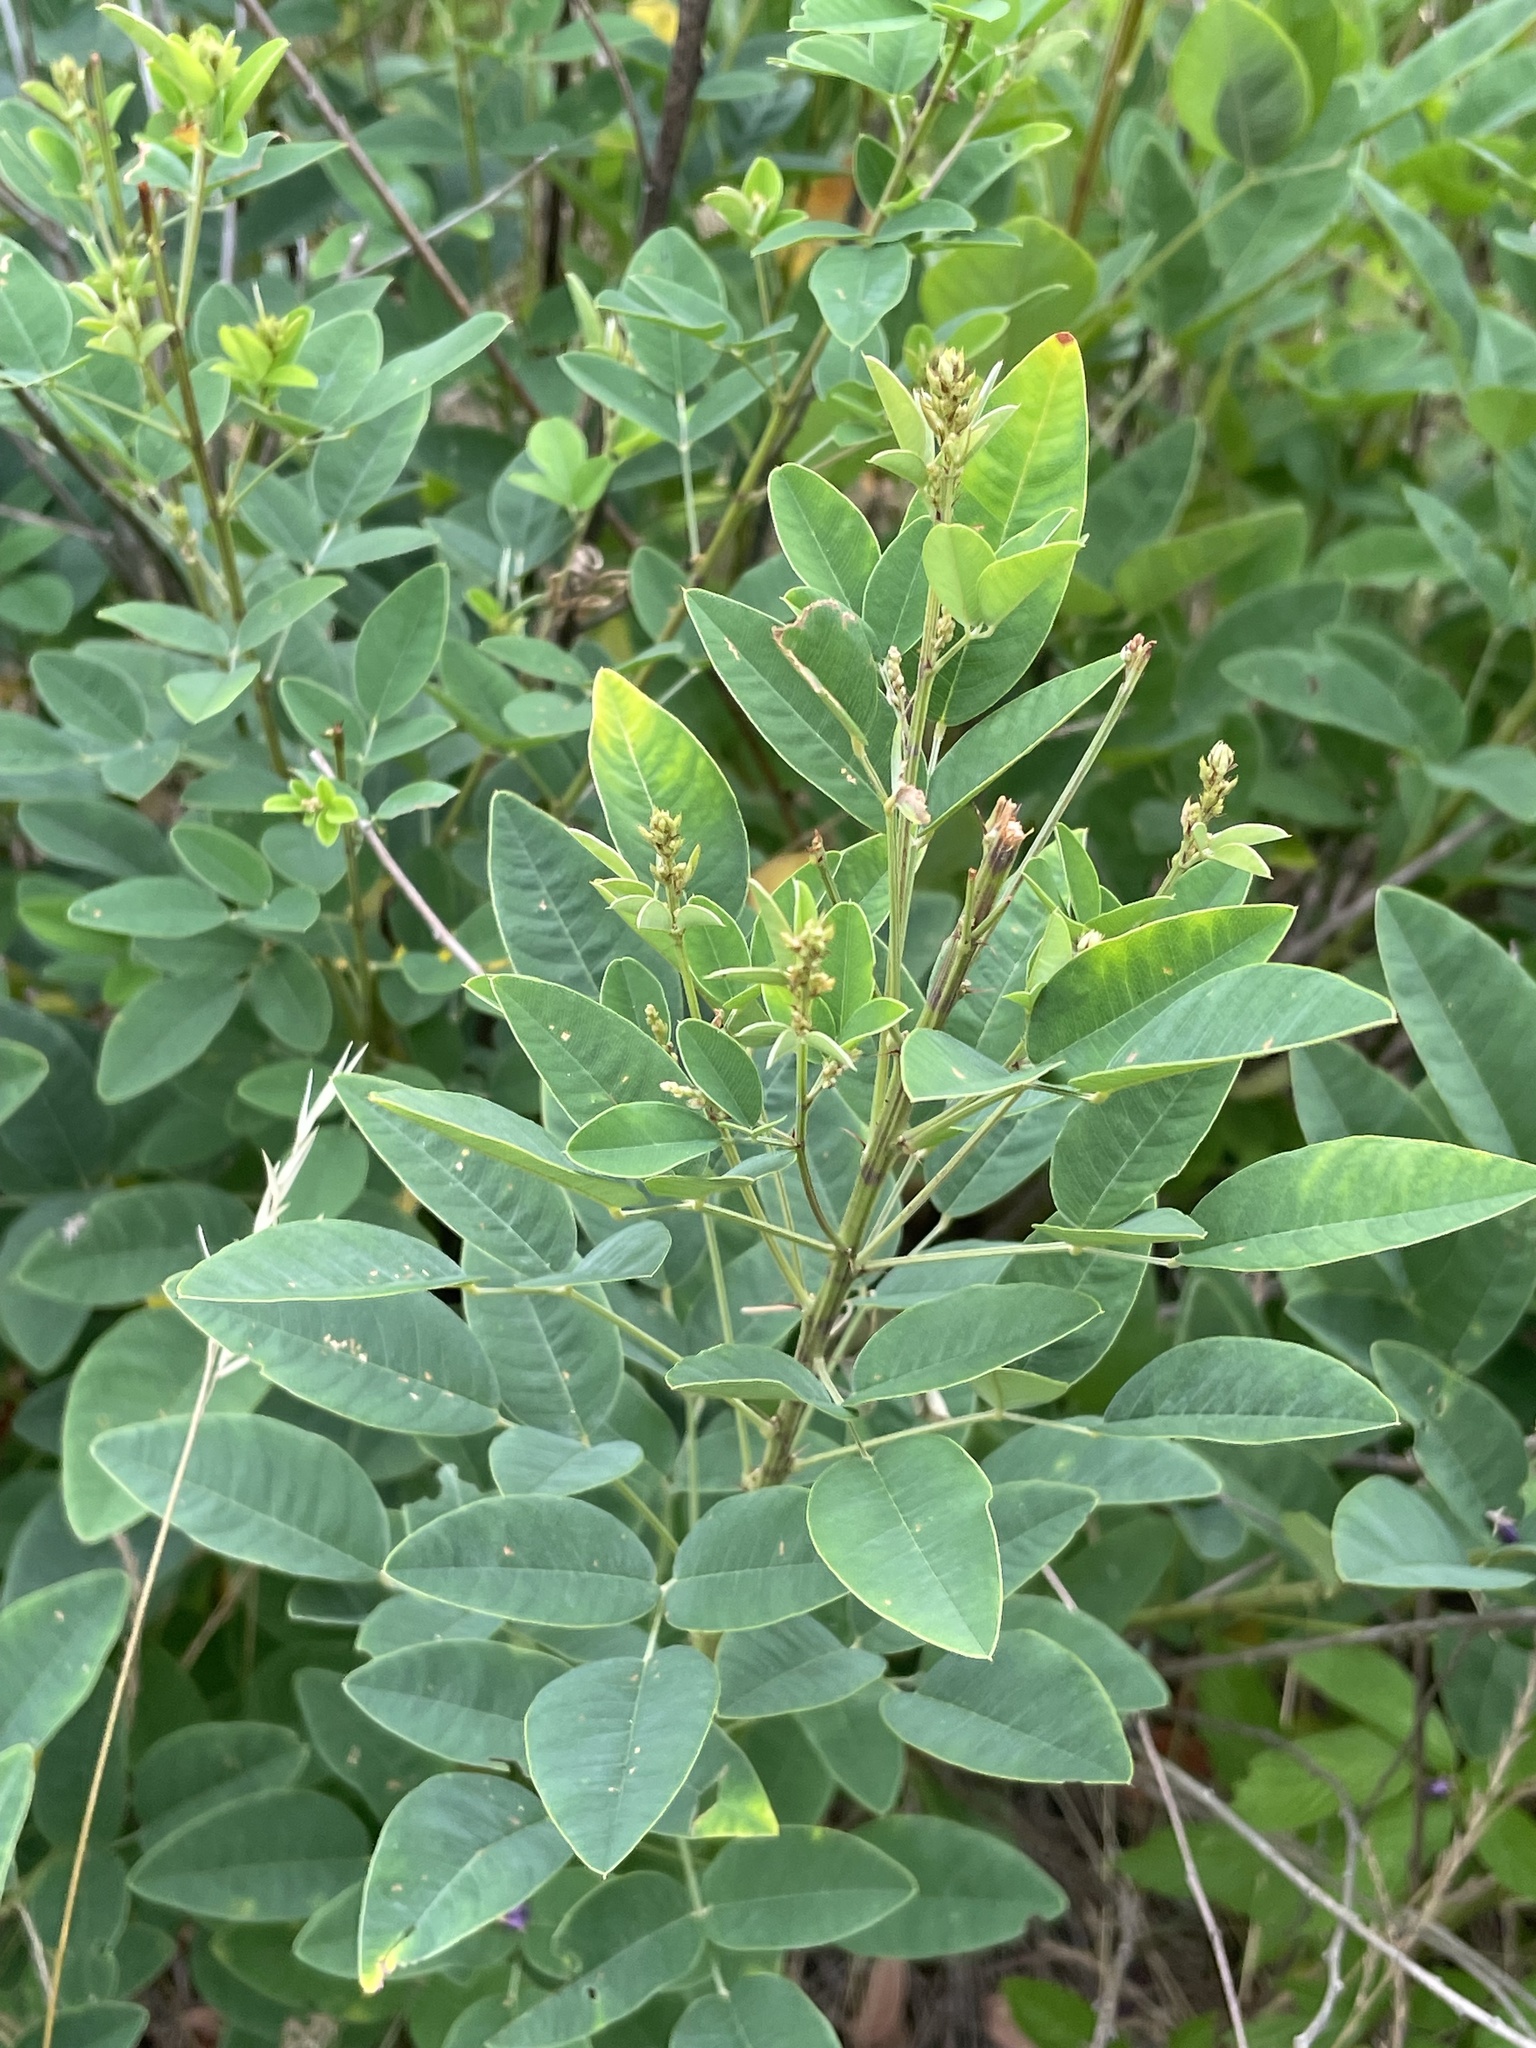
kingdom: Plantae
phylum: Tracheophyta
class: Magnoliopsida
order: Fabales
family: Fabaceae
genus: Lespedeza
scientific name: Lespedeza bicolor
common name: Shrub lespedeza
